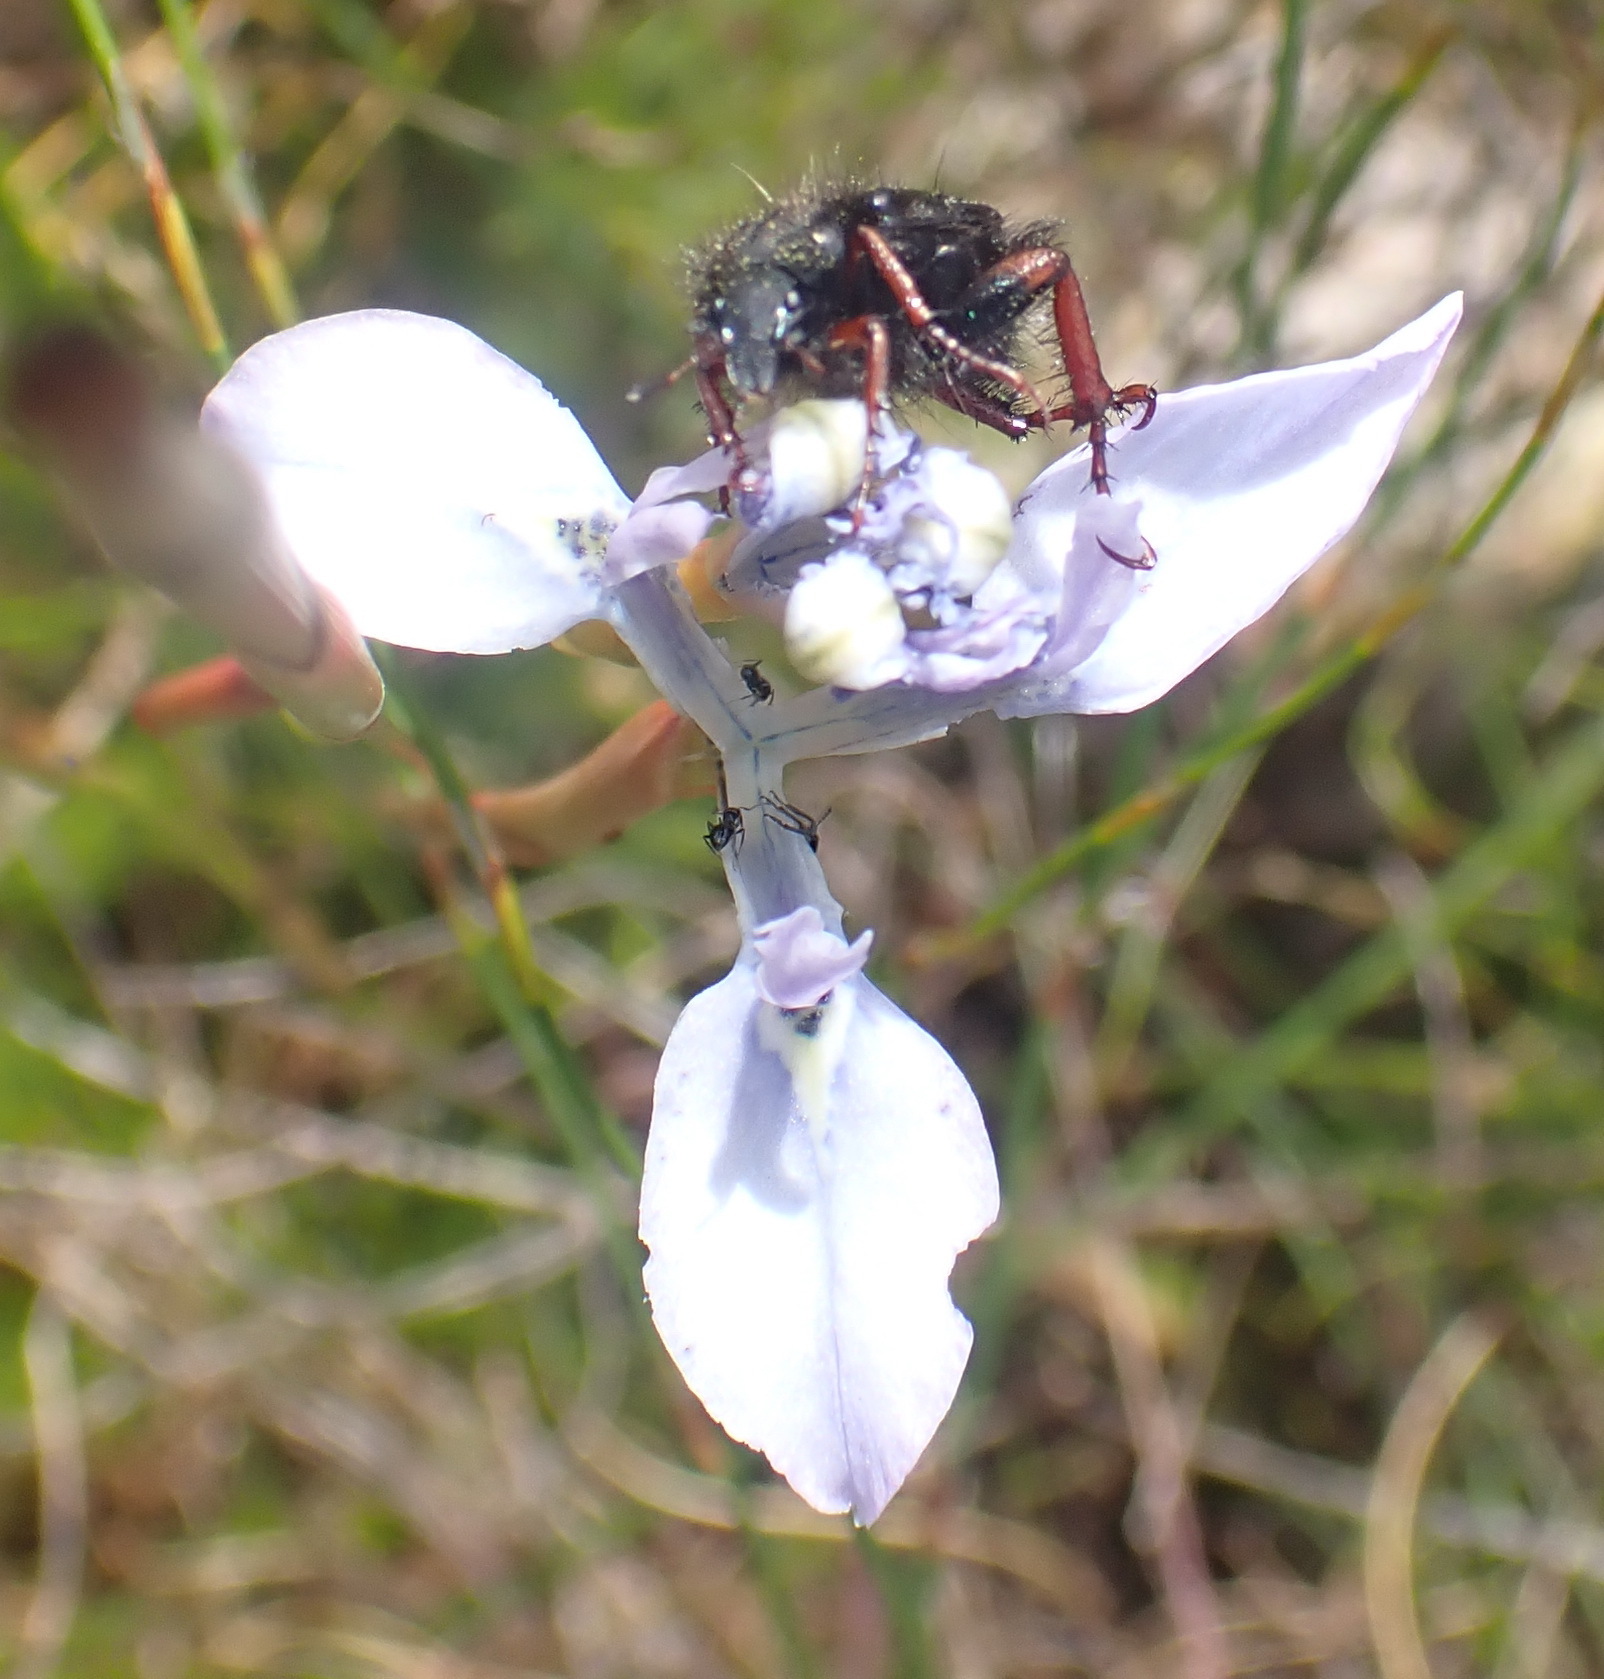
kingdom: Plantae
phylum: Tracheophyta
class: Liliopsida
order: Asparagales
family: Iridaceae
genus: Moraea
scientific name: Moraea tripetala
